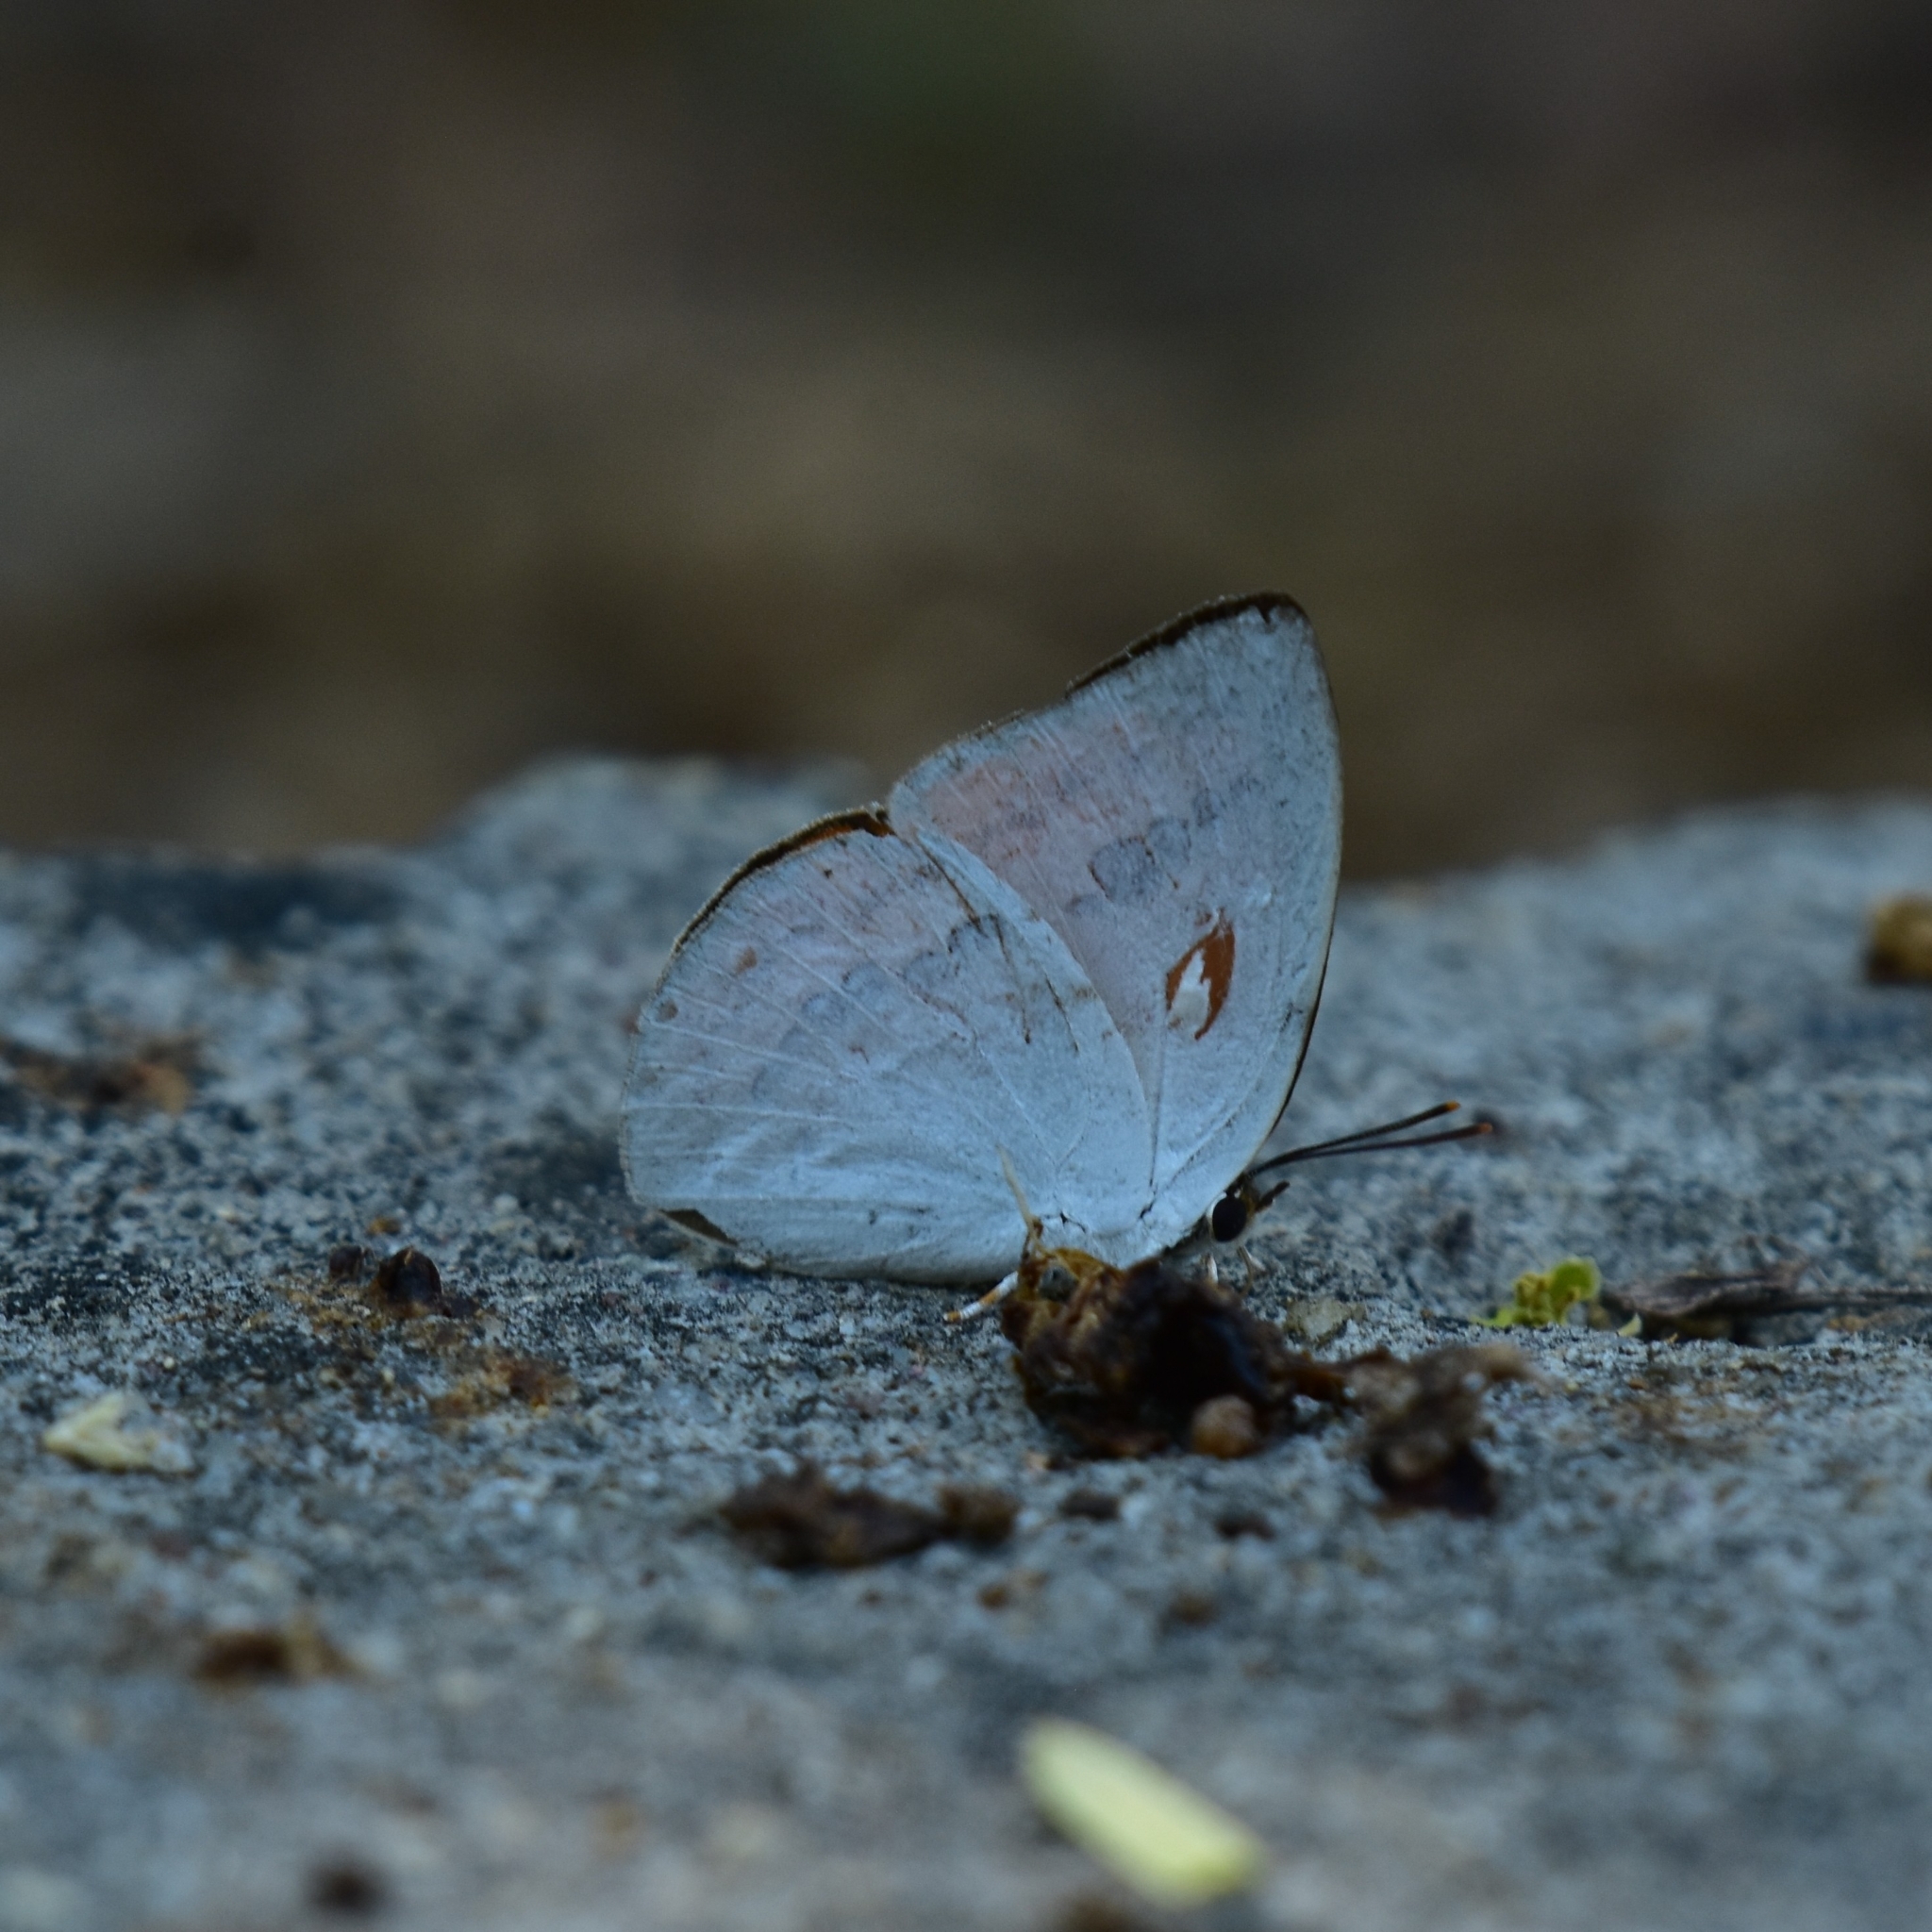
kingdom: Animalia
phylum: Arthropoda
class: Insecta
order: Lepidoptera
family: Lycaenidae
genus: Curetis
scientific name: Curetis thetis
